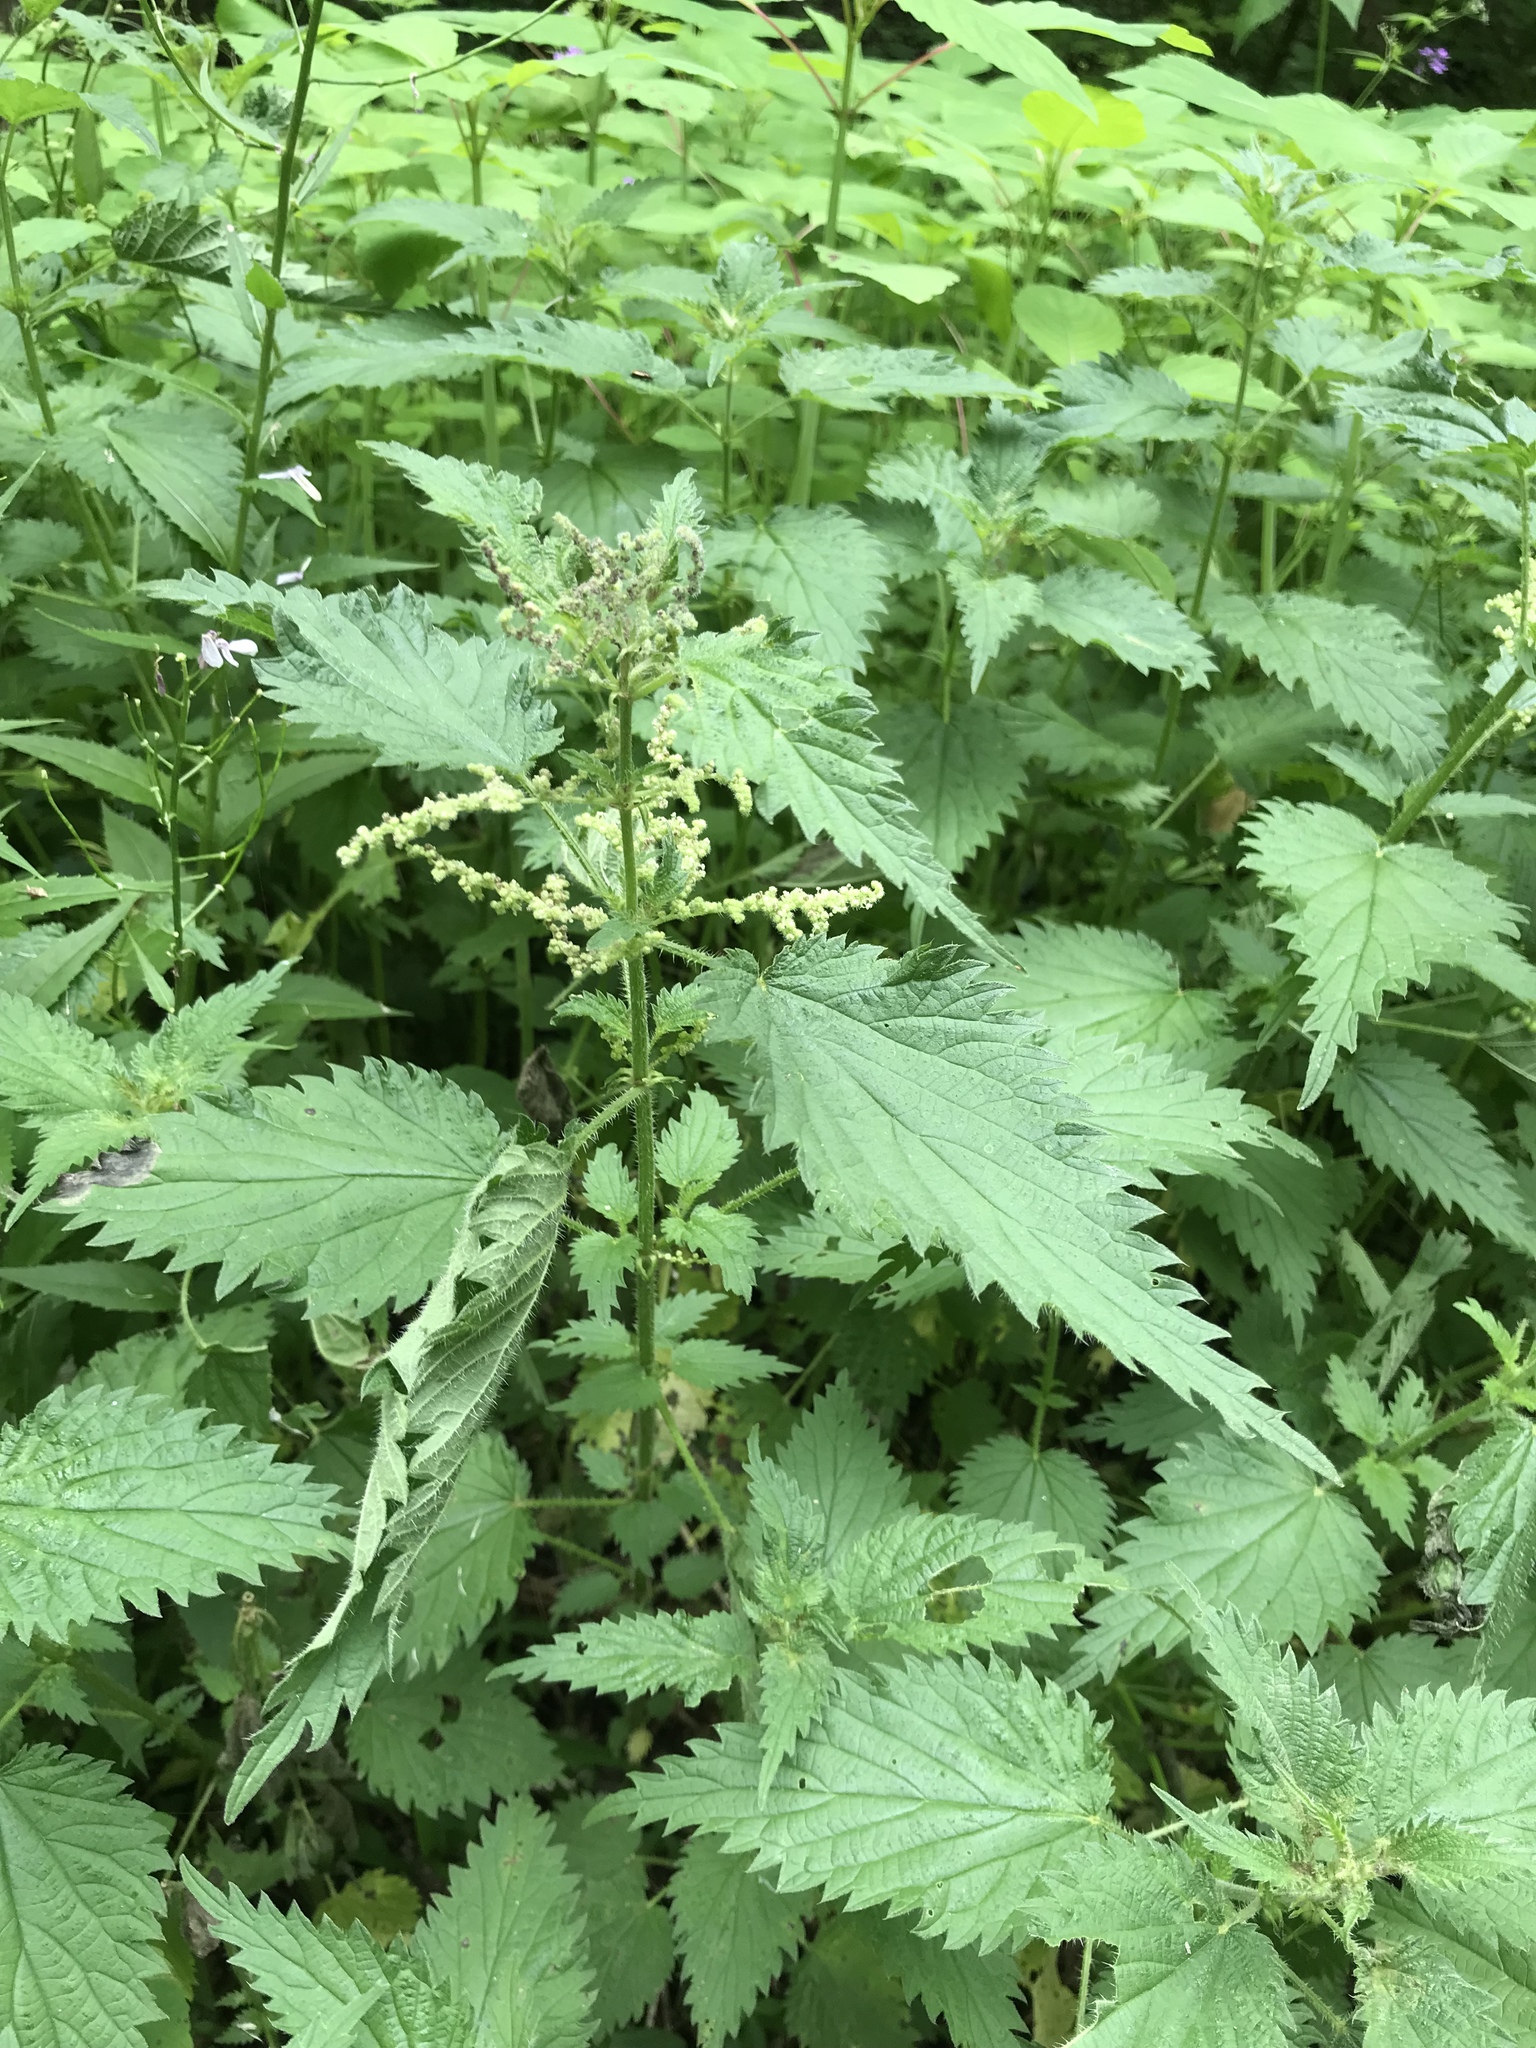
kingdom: Plantae
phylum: Tracheophyta
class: Magnoliopsida
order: Rosales
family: Urticaceae
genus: Urtica
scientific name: Urtica dioica
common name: Common nettle
